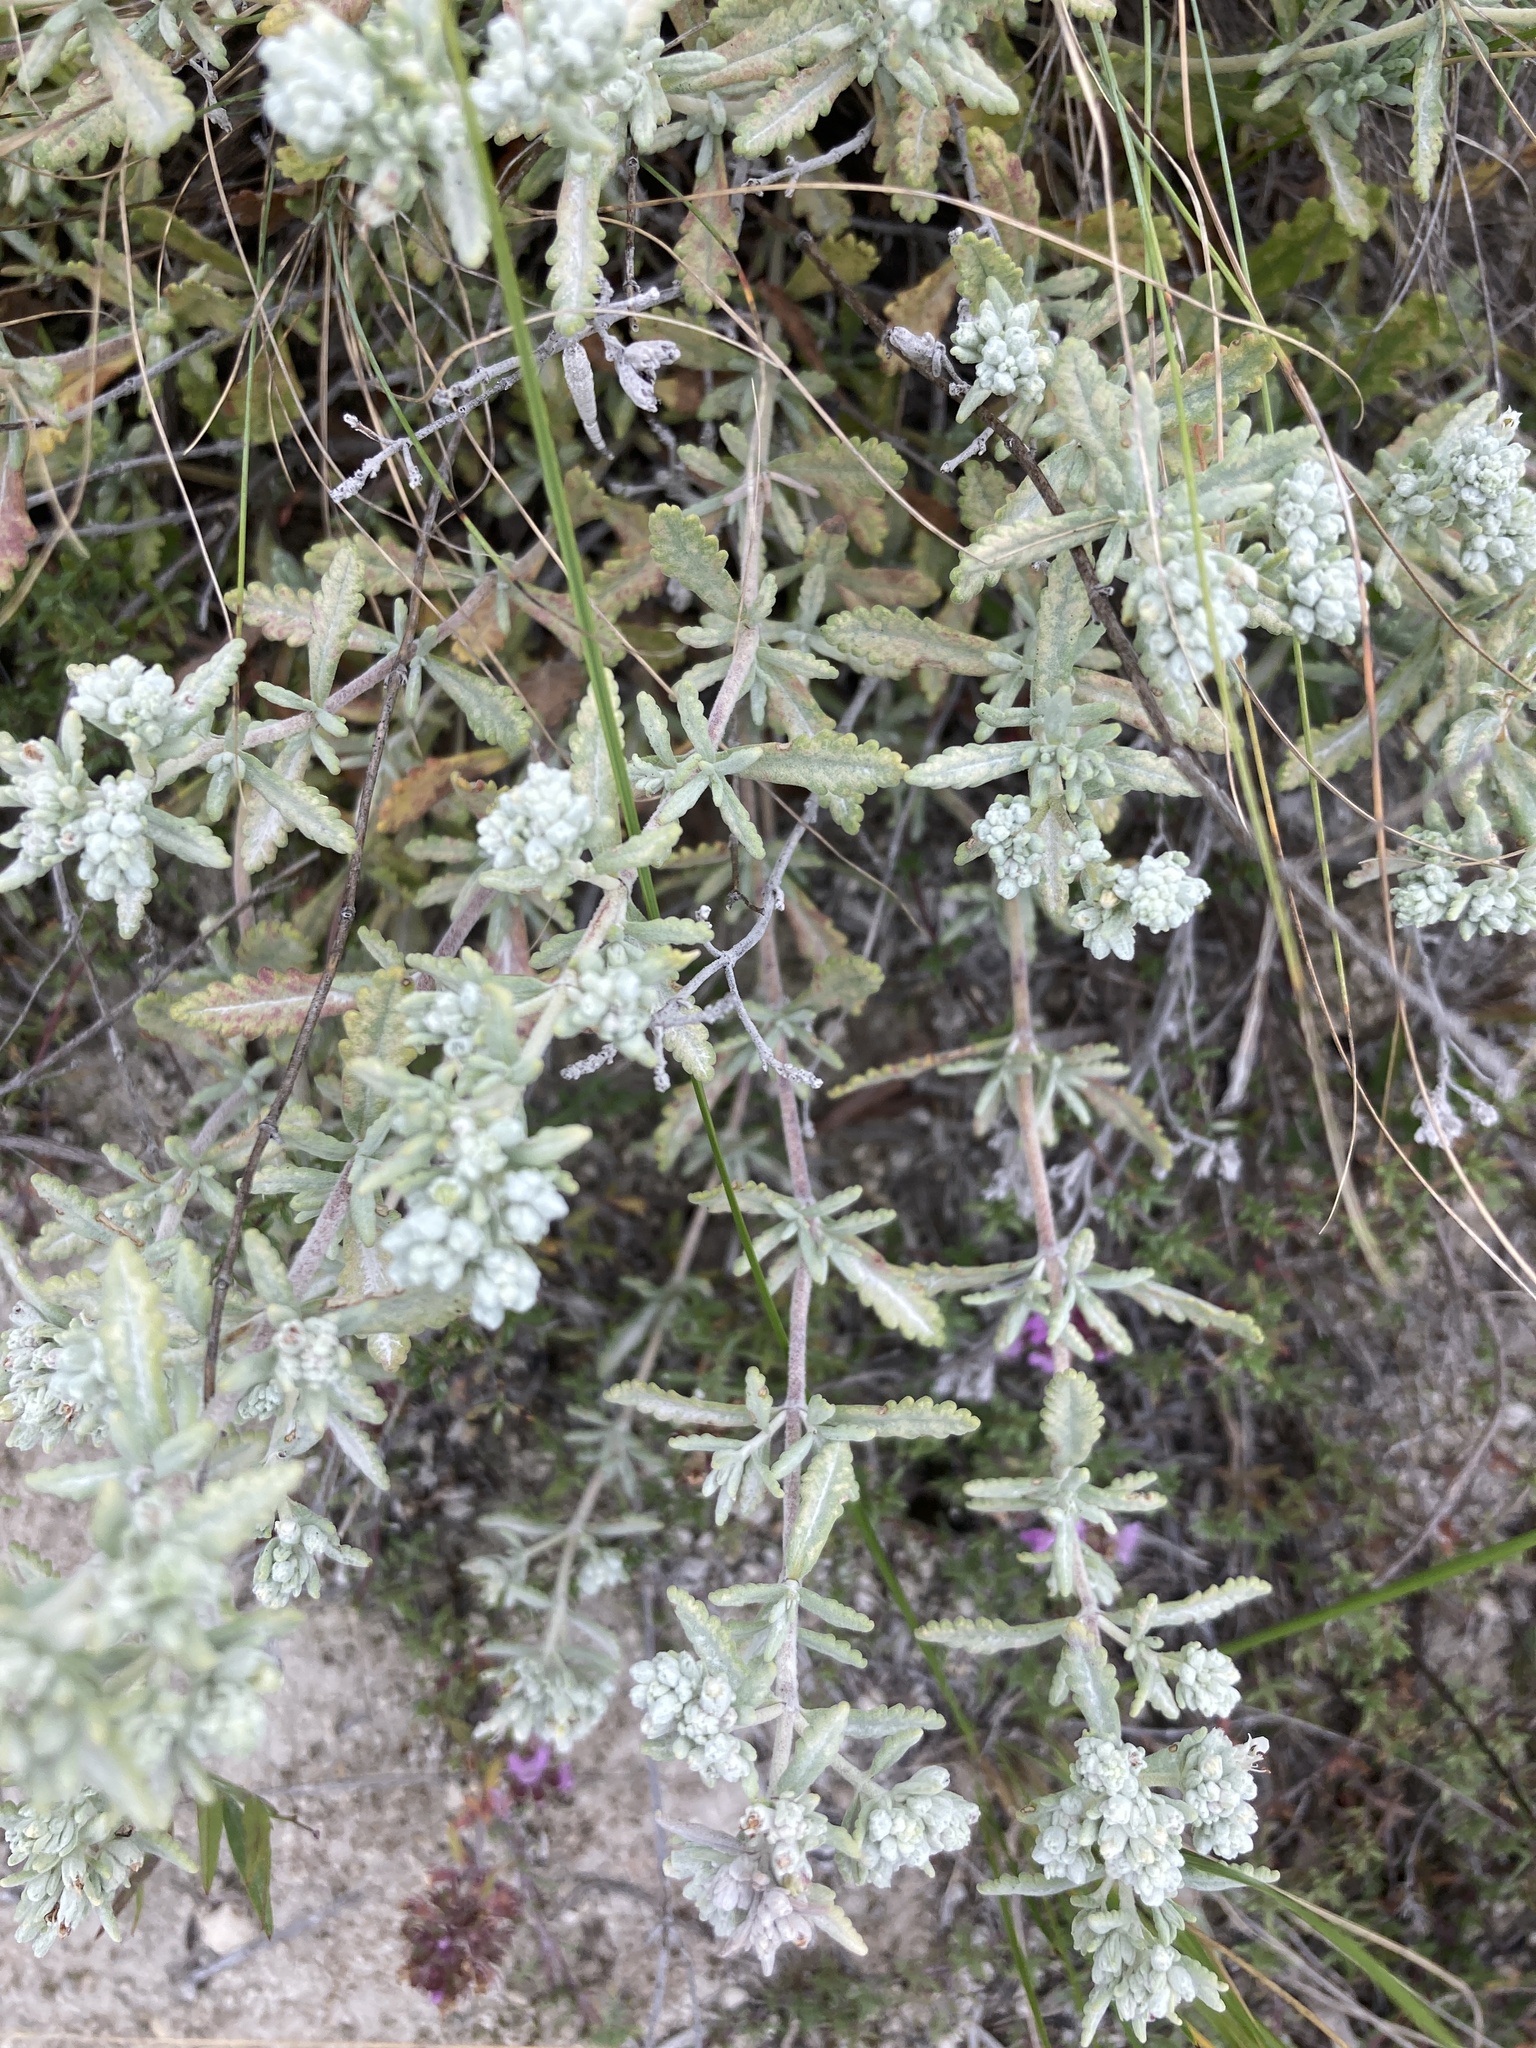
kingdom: Plantae
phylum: Tracheophyta
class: Magnoliopsida
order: Lamiales
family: Lamiaceae
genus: Teucrium
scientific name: Teucrium polium
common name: Poley
